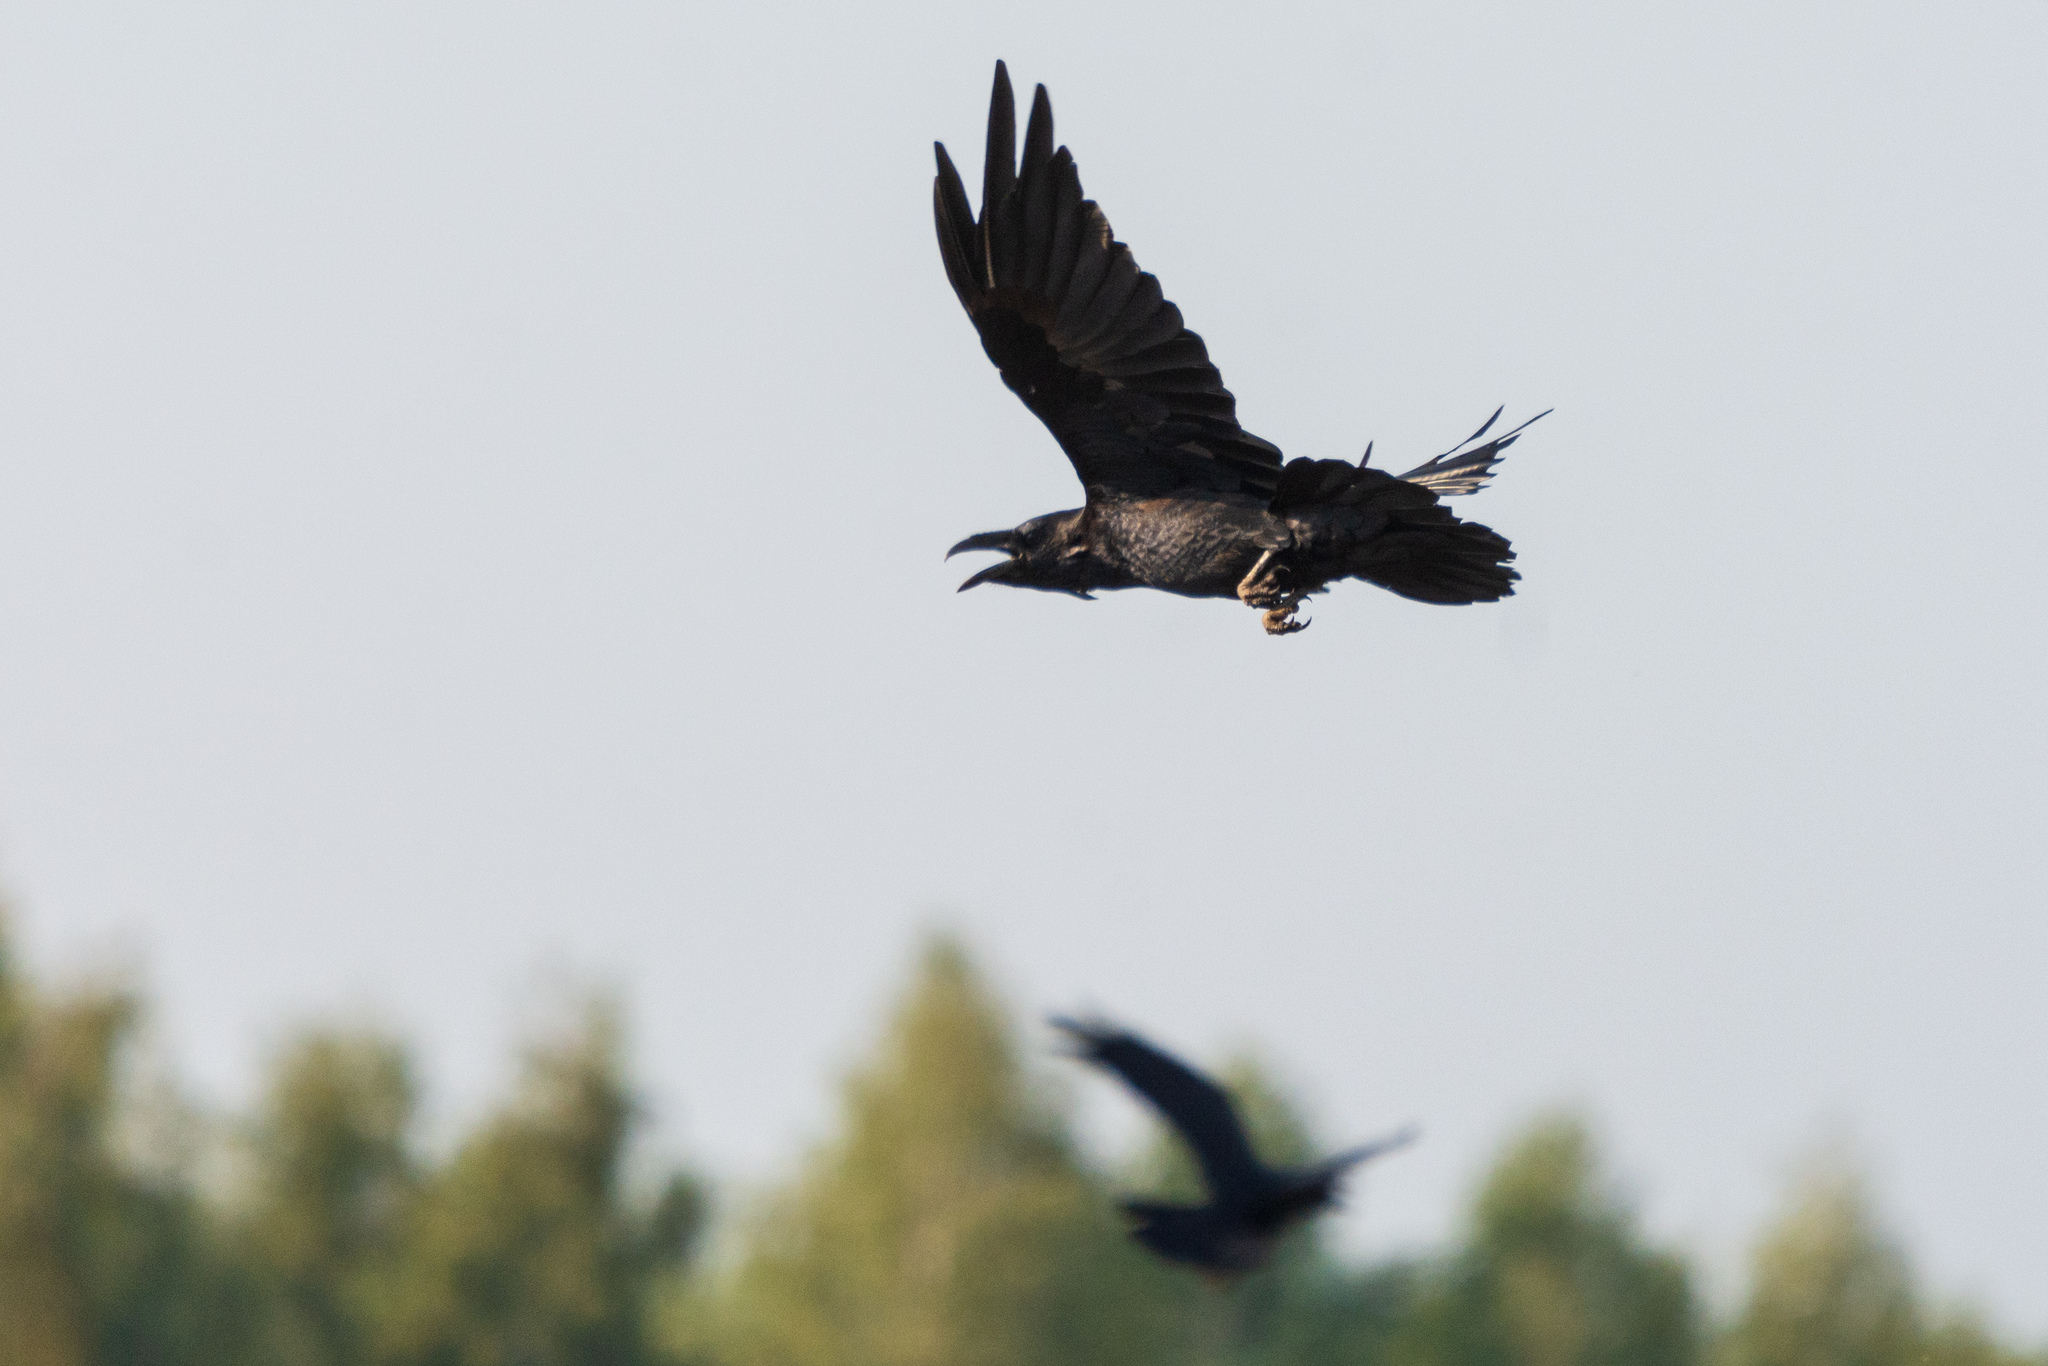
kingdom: Animalia
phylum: Chordata
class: Aves
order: Passeriformes
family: Corvidae
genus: Corvus
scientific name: Corvus corax
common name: Common raven
